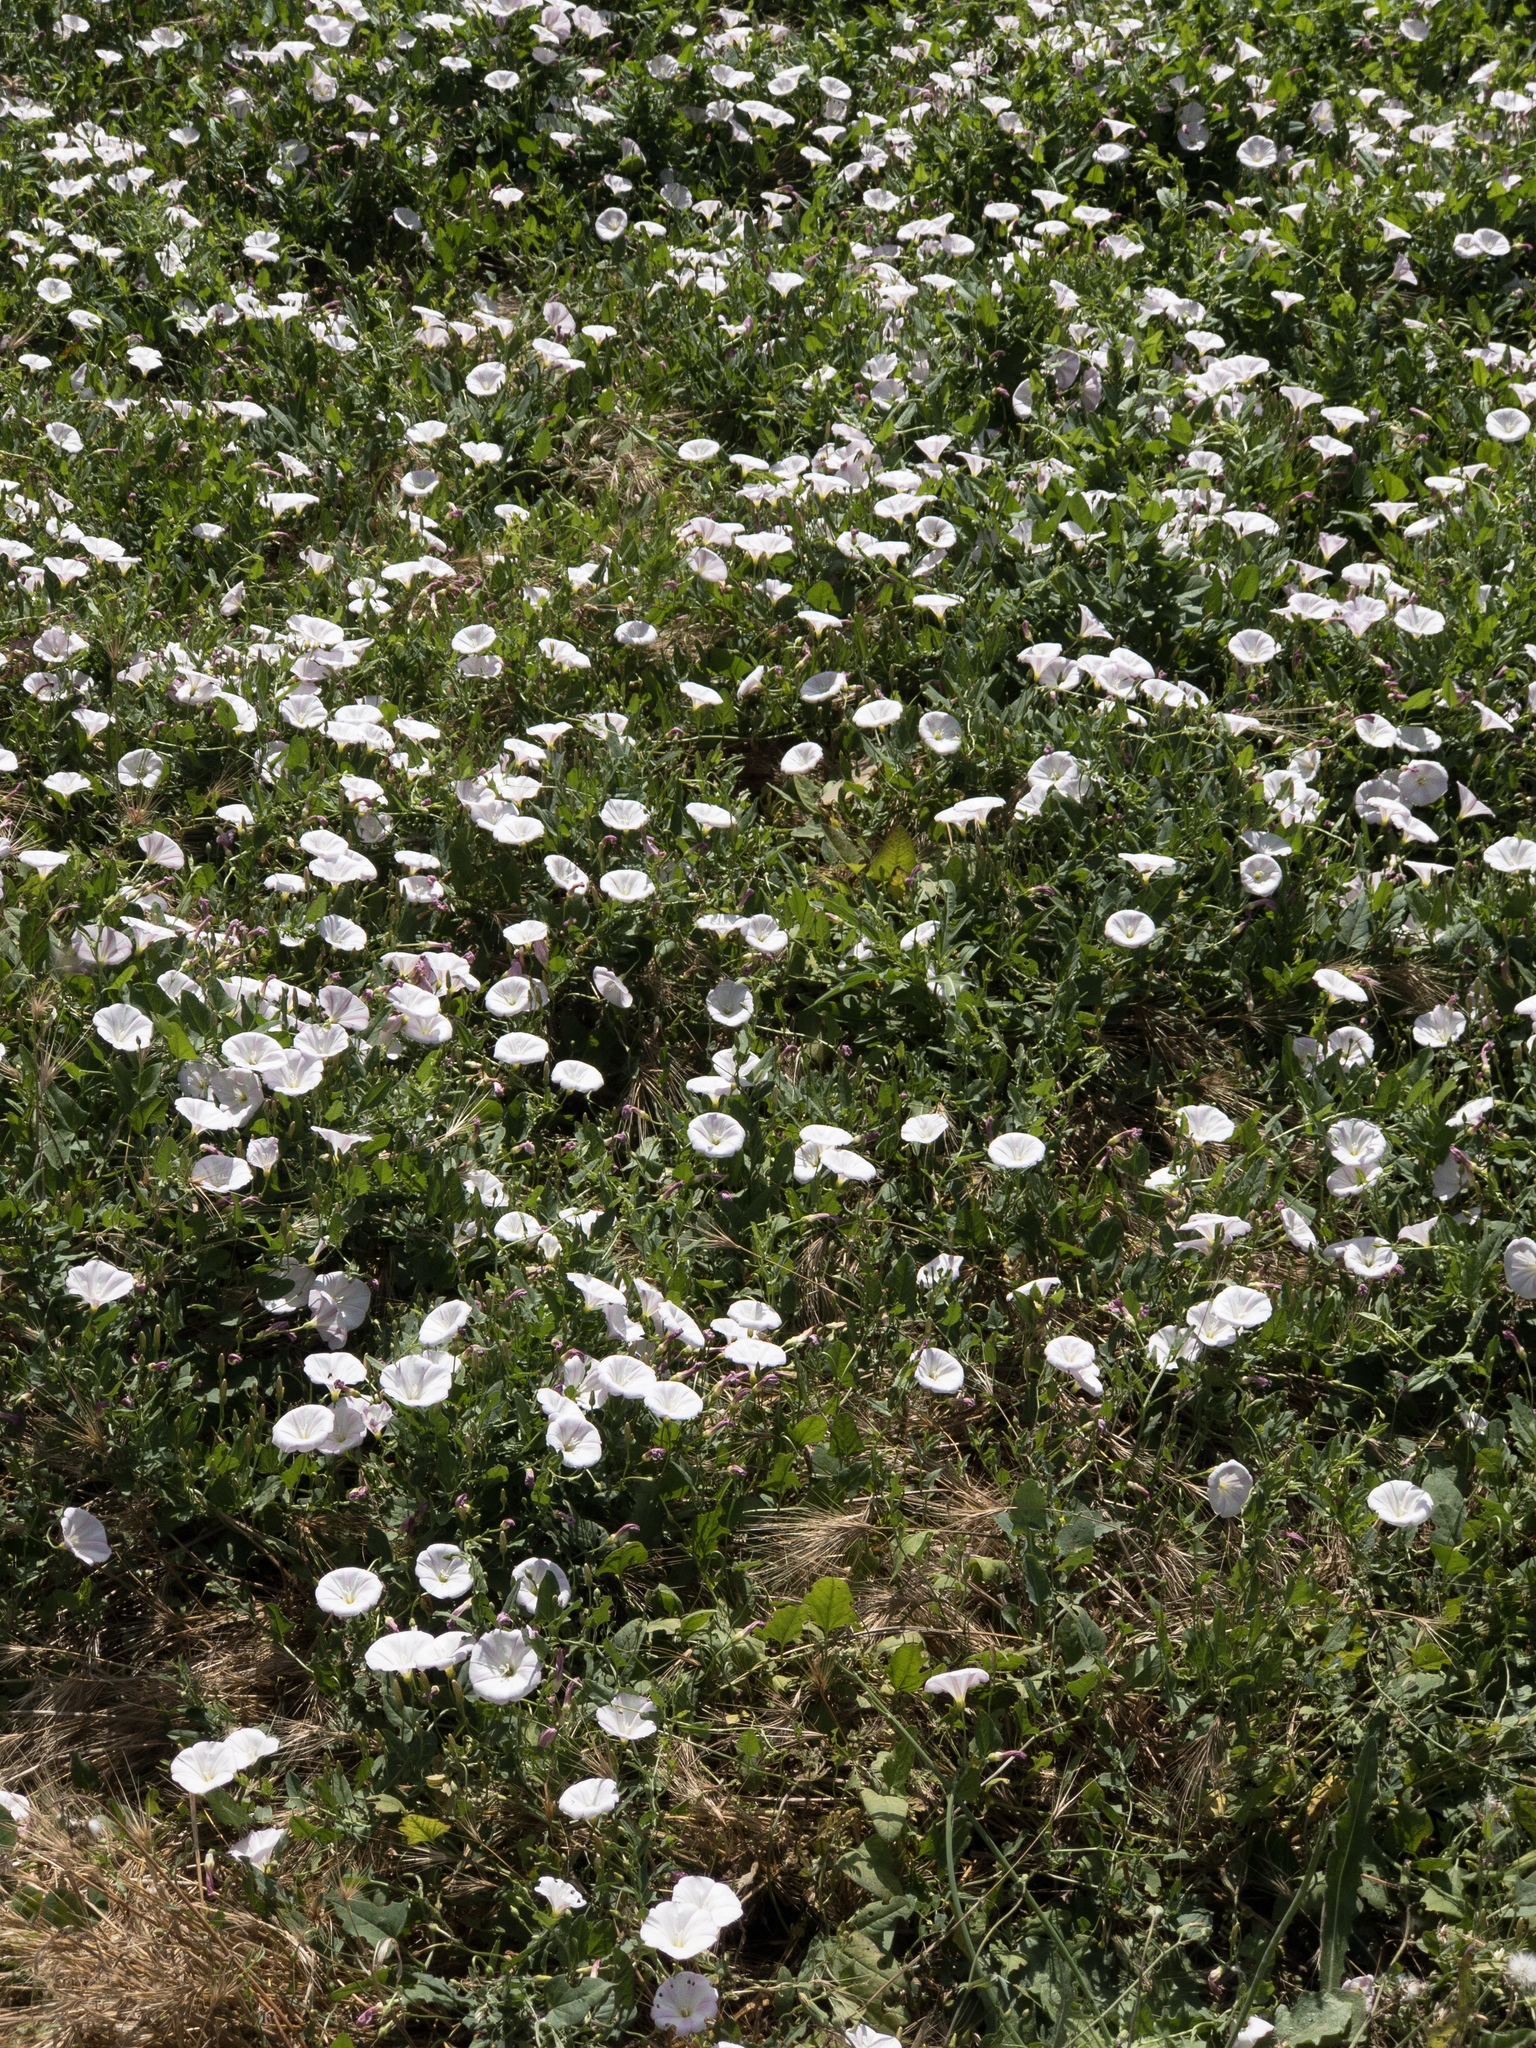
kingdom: Plantae
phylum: Tracheophyta
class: Magnoliopsida
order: Solanales
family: Convolvulaceae
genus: Convolvulus
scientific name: Convolvulus arvensis
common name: Field bindweed
